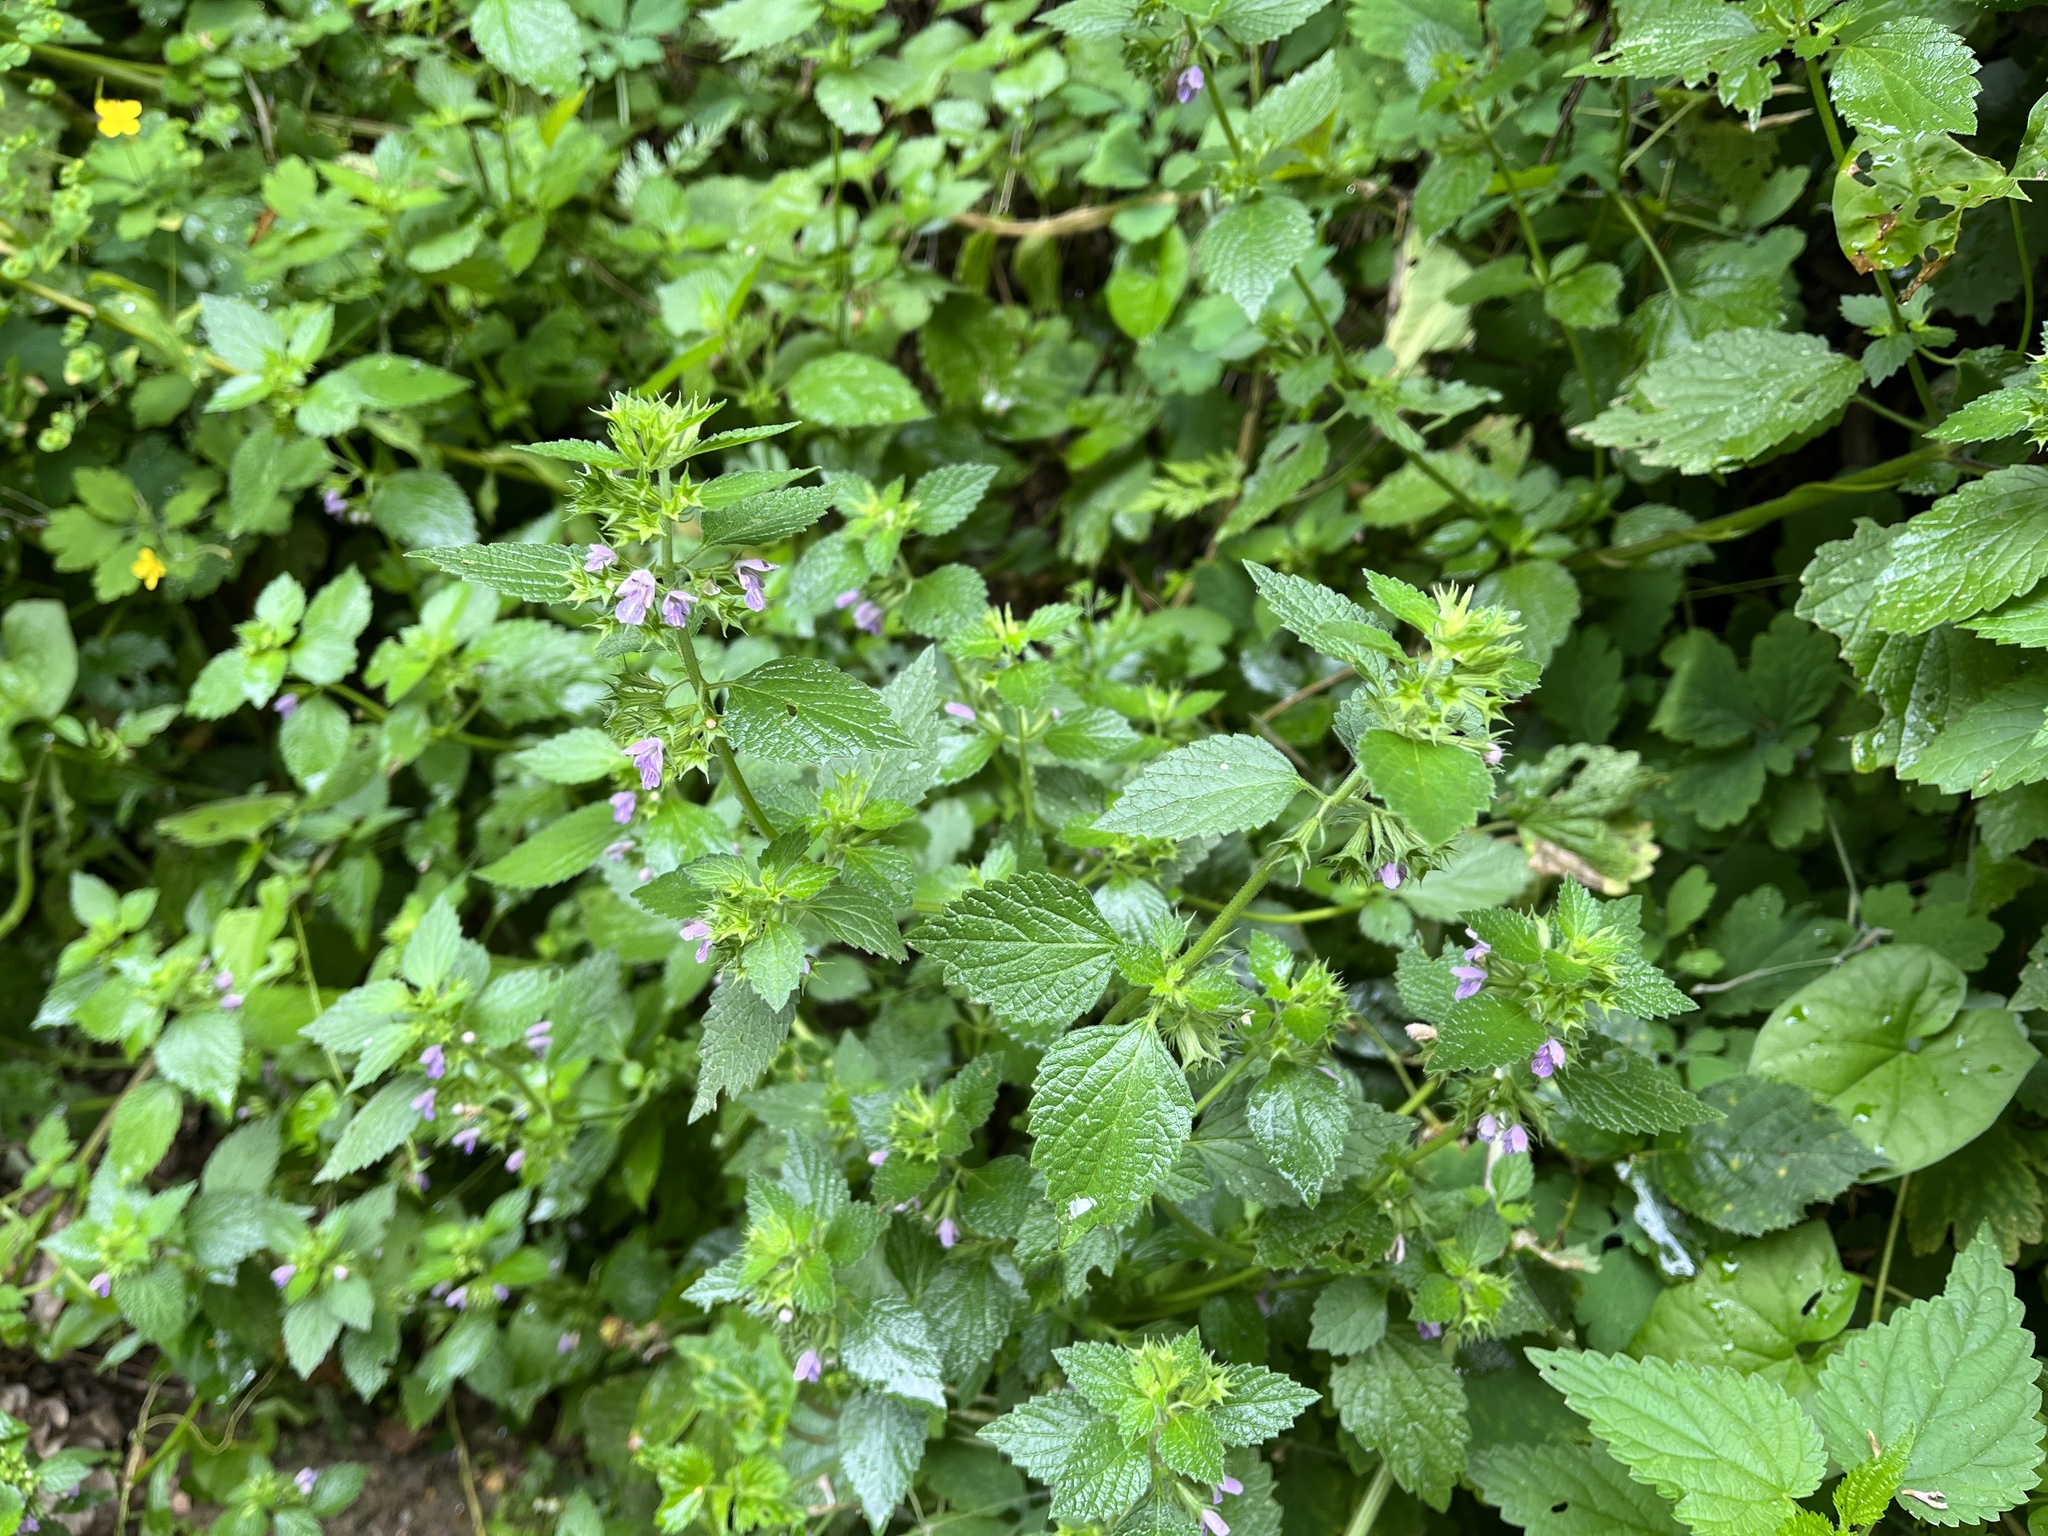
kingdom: Plantae
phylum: Tracheophyta
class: Magnoliopsida
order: Lamiales
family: Lamiaceae
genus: Ballota
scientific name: Ballota nigra
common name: Black horehound
